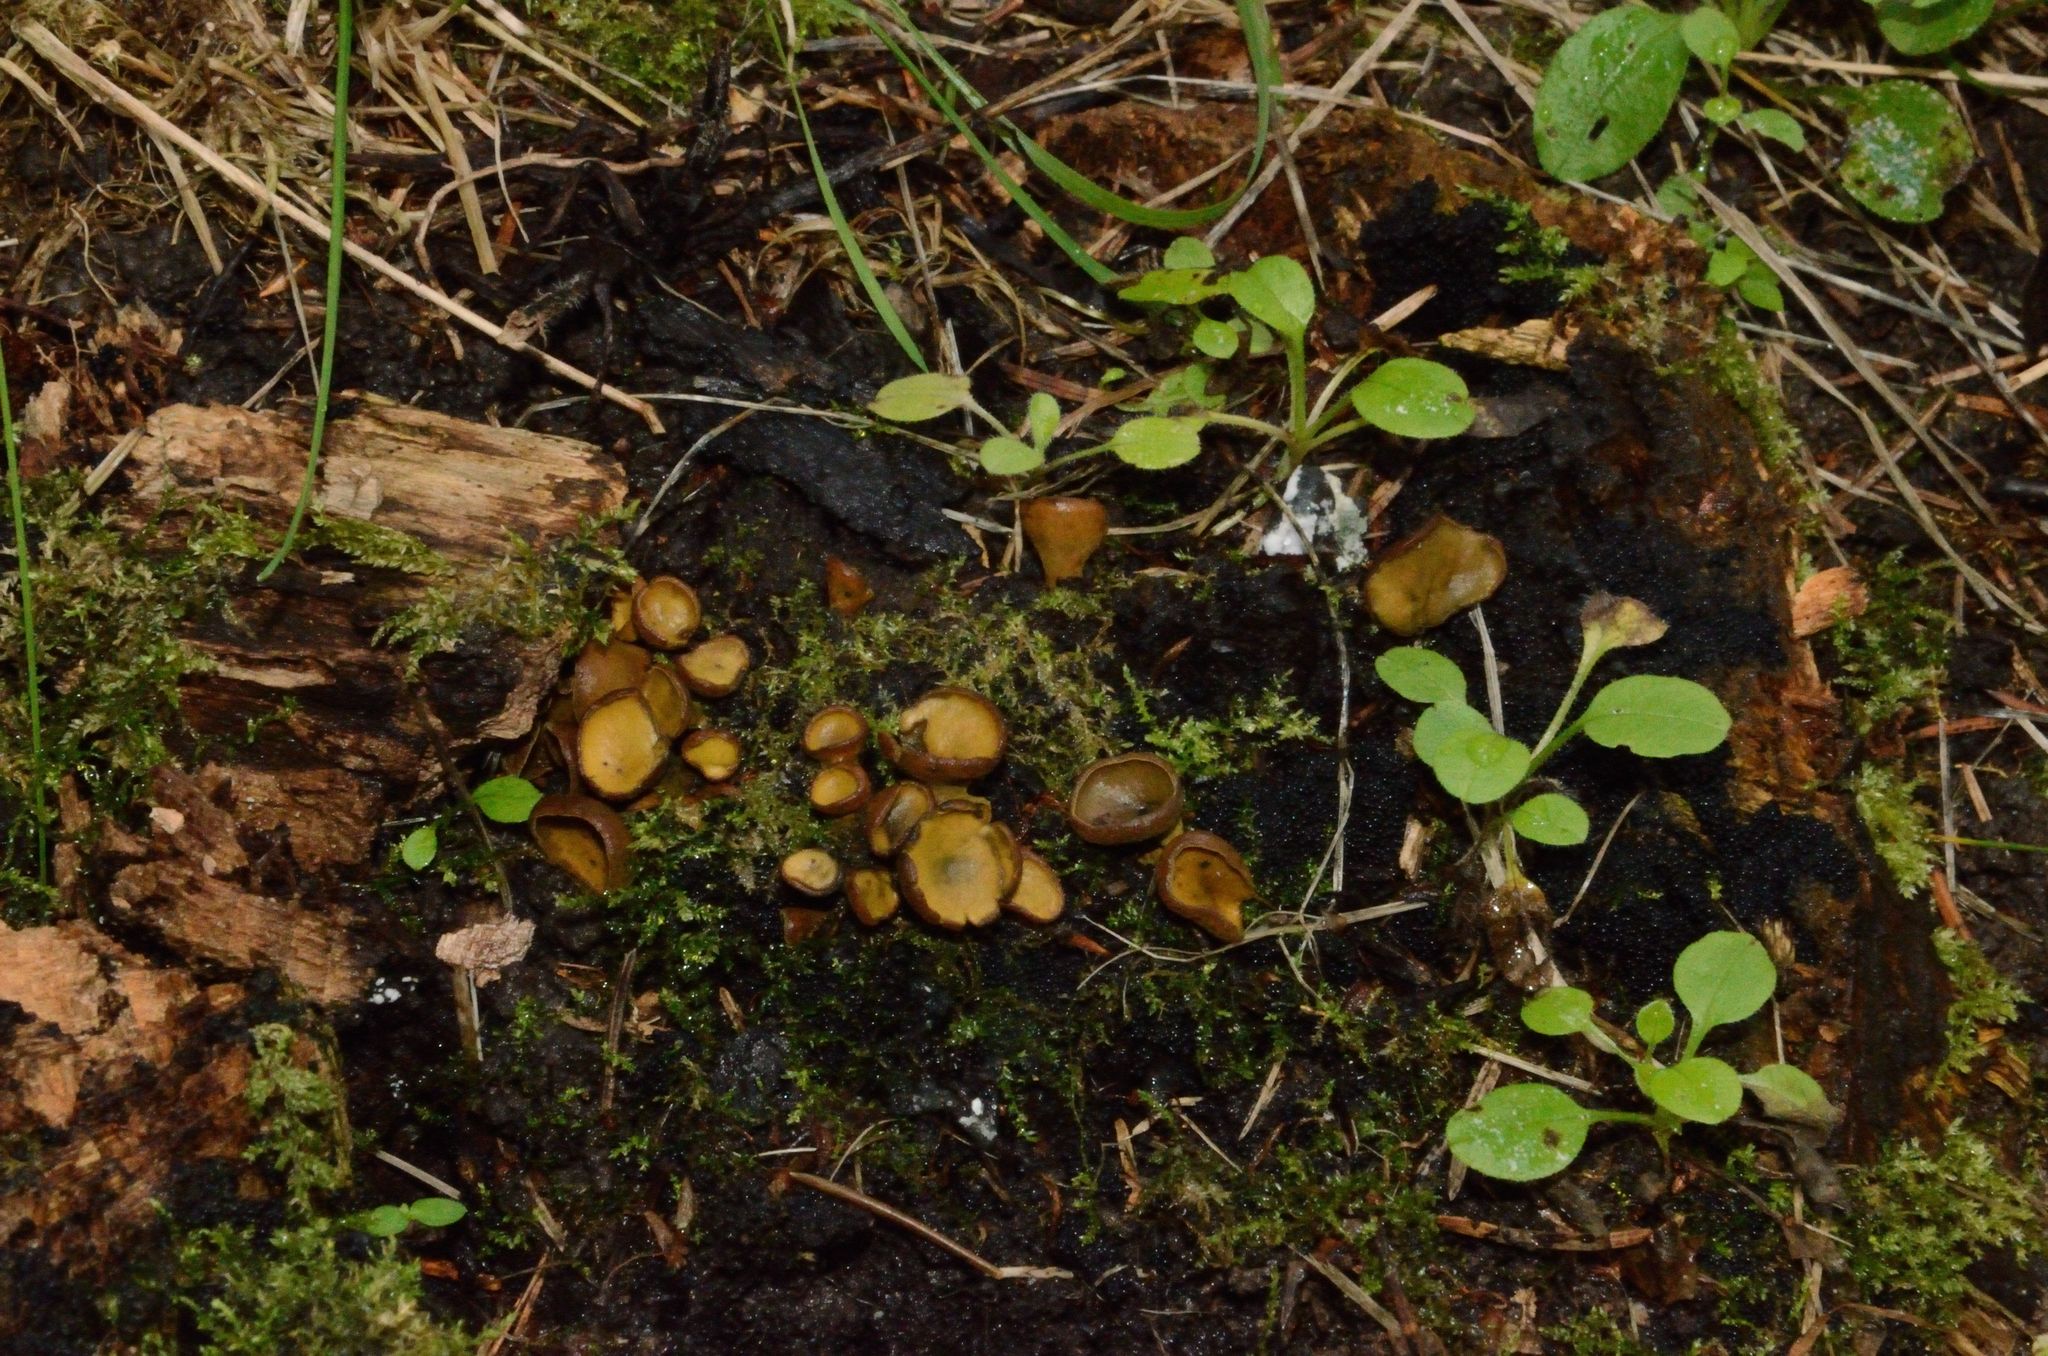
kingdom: Fungi
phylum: Ascomycota
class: Leotiomycetes
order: Helotiales
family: Cenangiaceae
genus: Chlorencoelia
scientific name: Chlorencoelia versiformis
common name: Flea's ear
